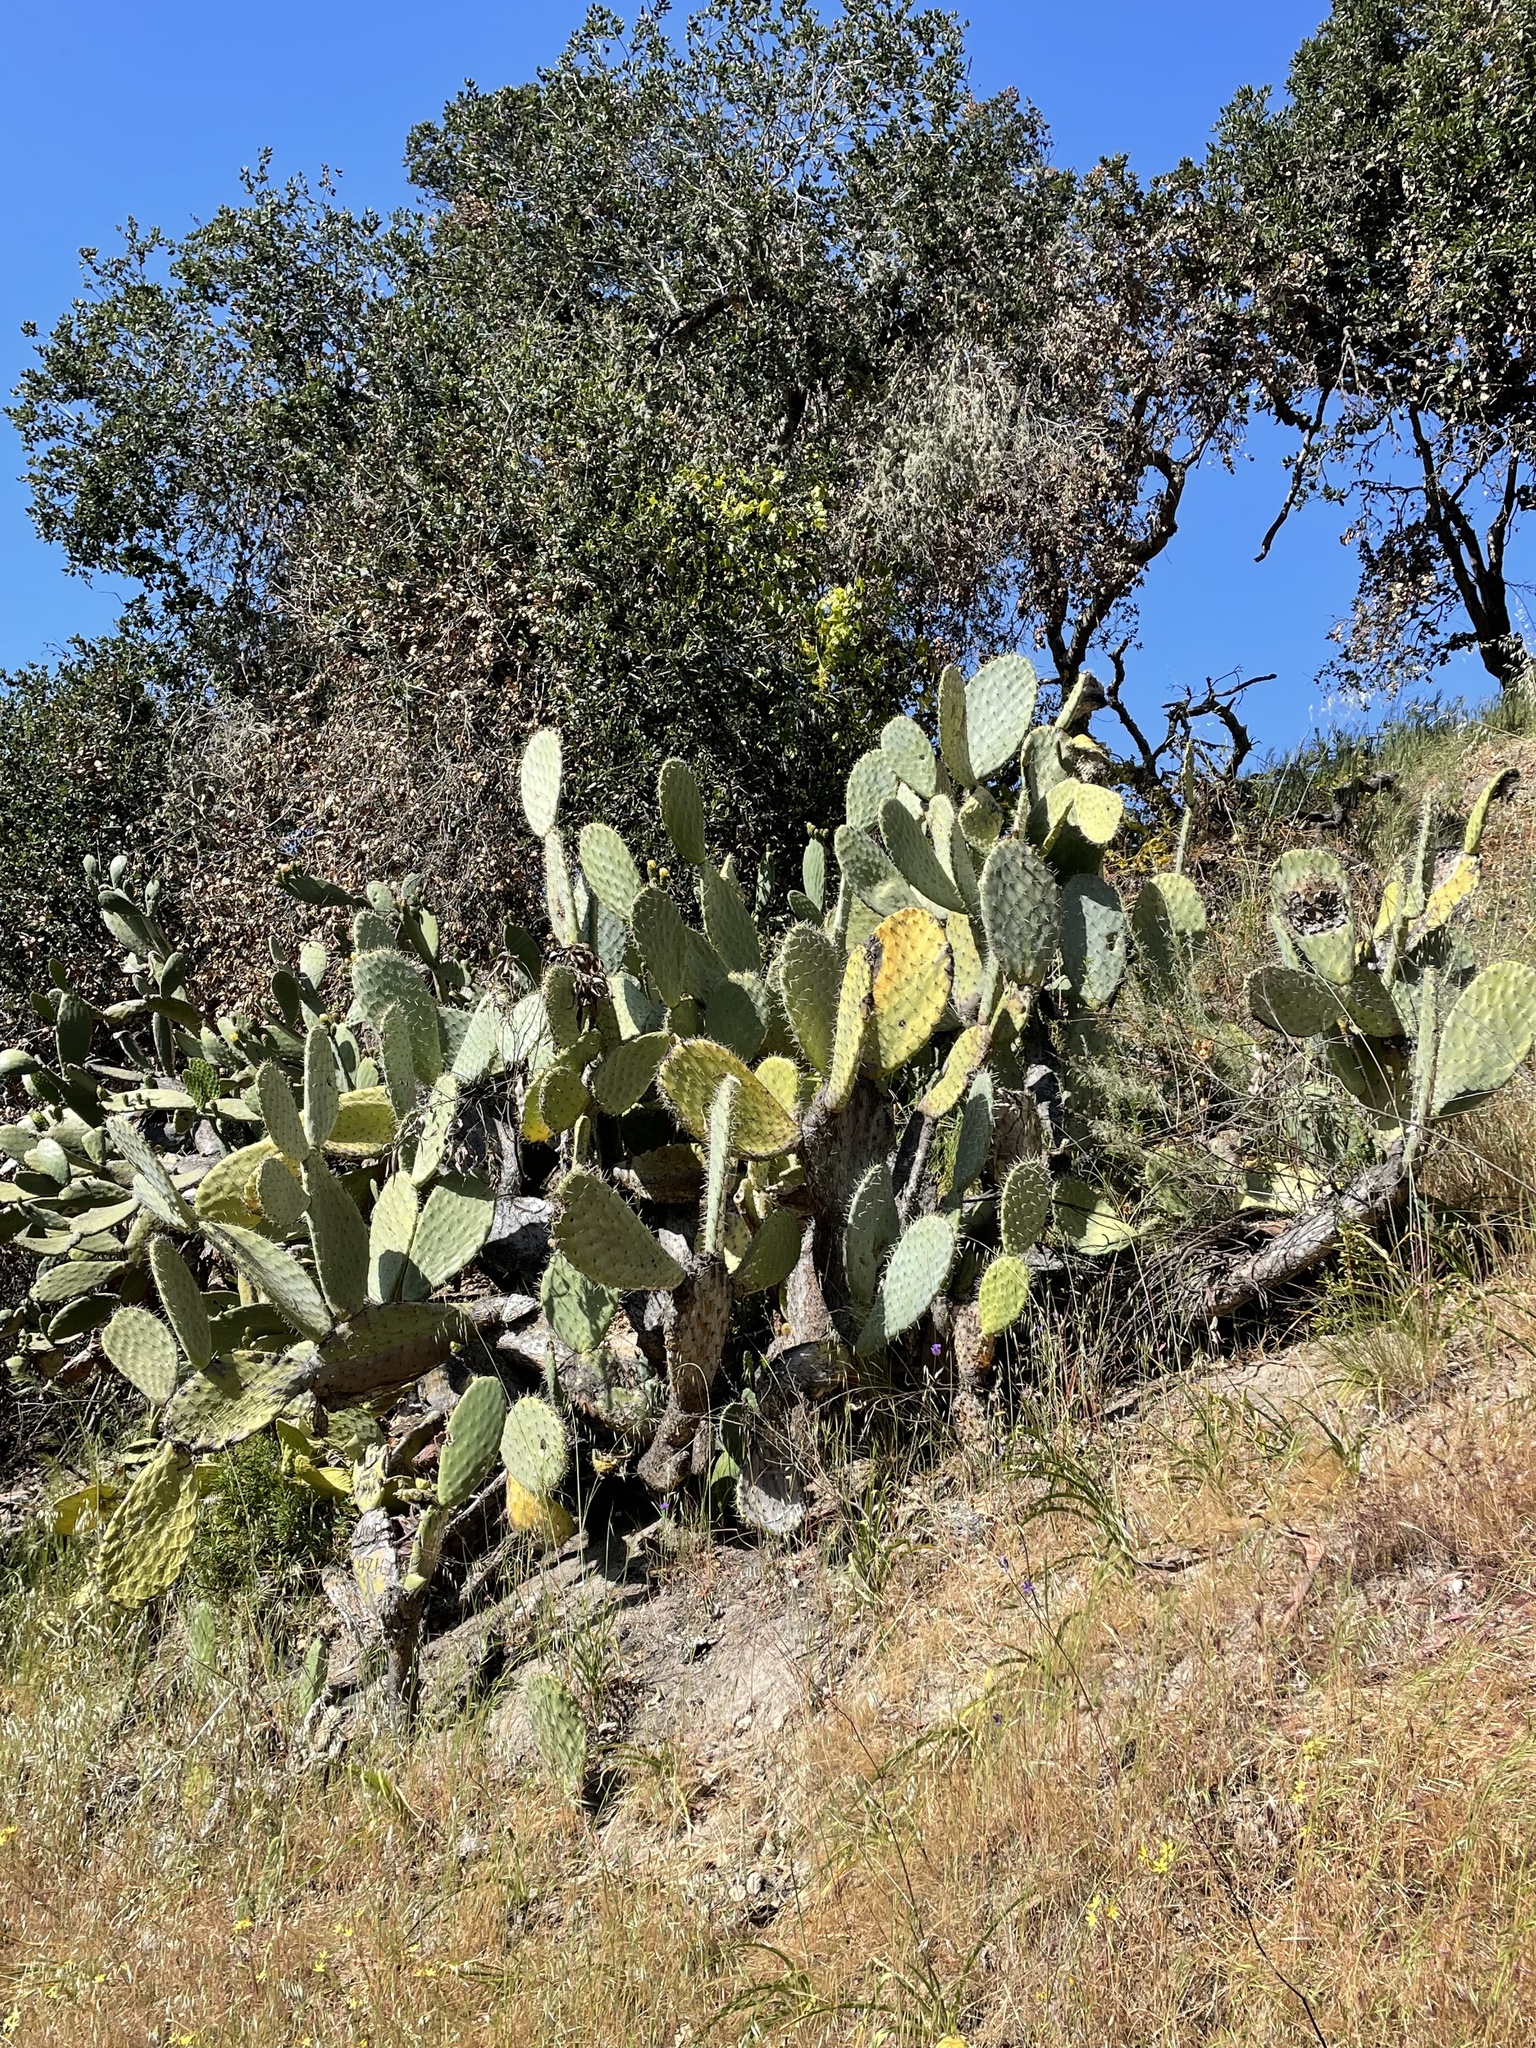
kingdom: Plantae
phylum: Tracheophyta
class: Magnoliopsida
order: Caryophyllales
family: Cactaceae
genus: Opuntia
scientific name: Opuntia ficus-indica
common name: Barbary fig
